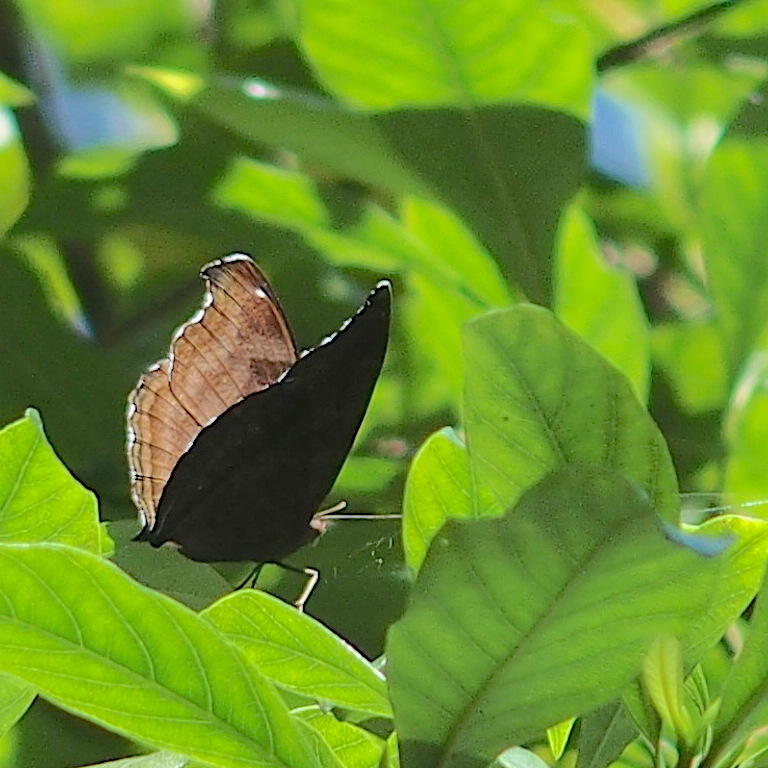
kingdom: Animalia
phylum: Arthropoda
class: Insecta
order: Lepidoptera
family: Nymphalidae
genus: Junonia
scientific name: Junonia iphita
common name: Chocolate pansy
